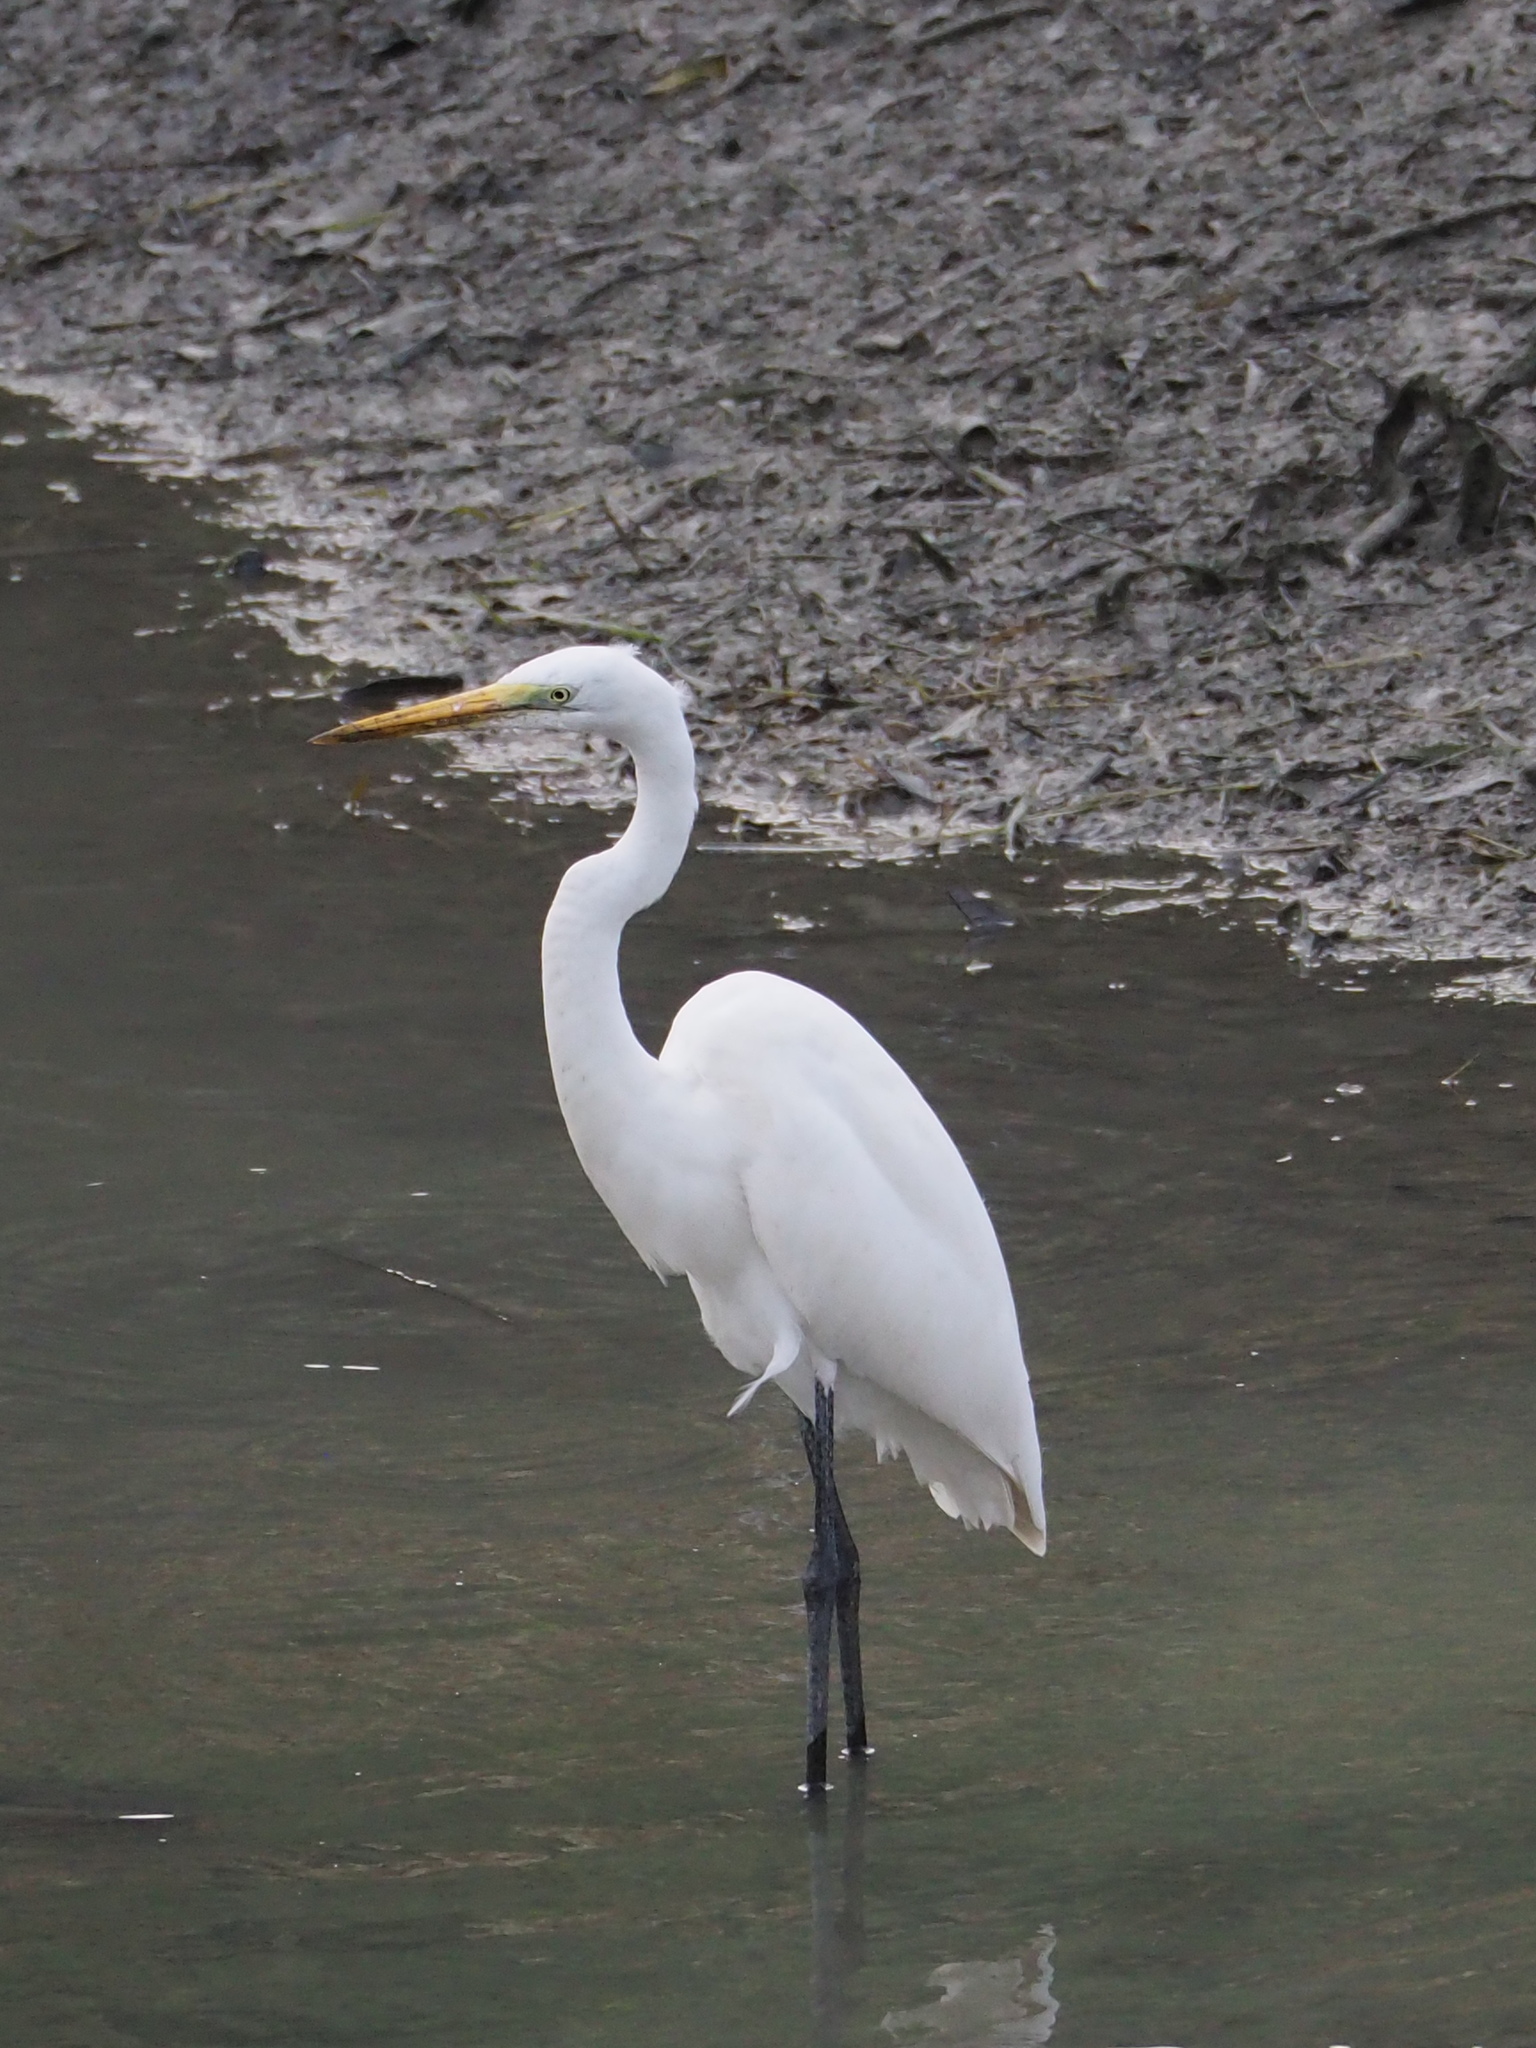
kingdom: Animalia
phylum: Chordata
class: Aves
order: Pelecaniformes
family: Ardeidae
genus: Ardea
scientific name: Ardea alba
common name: Great egret
